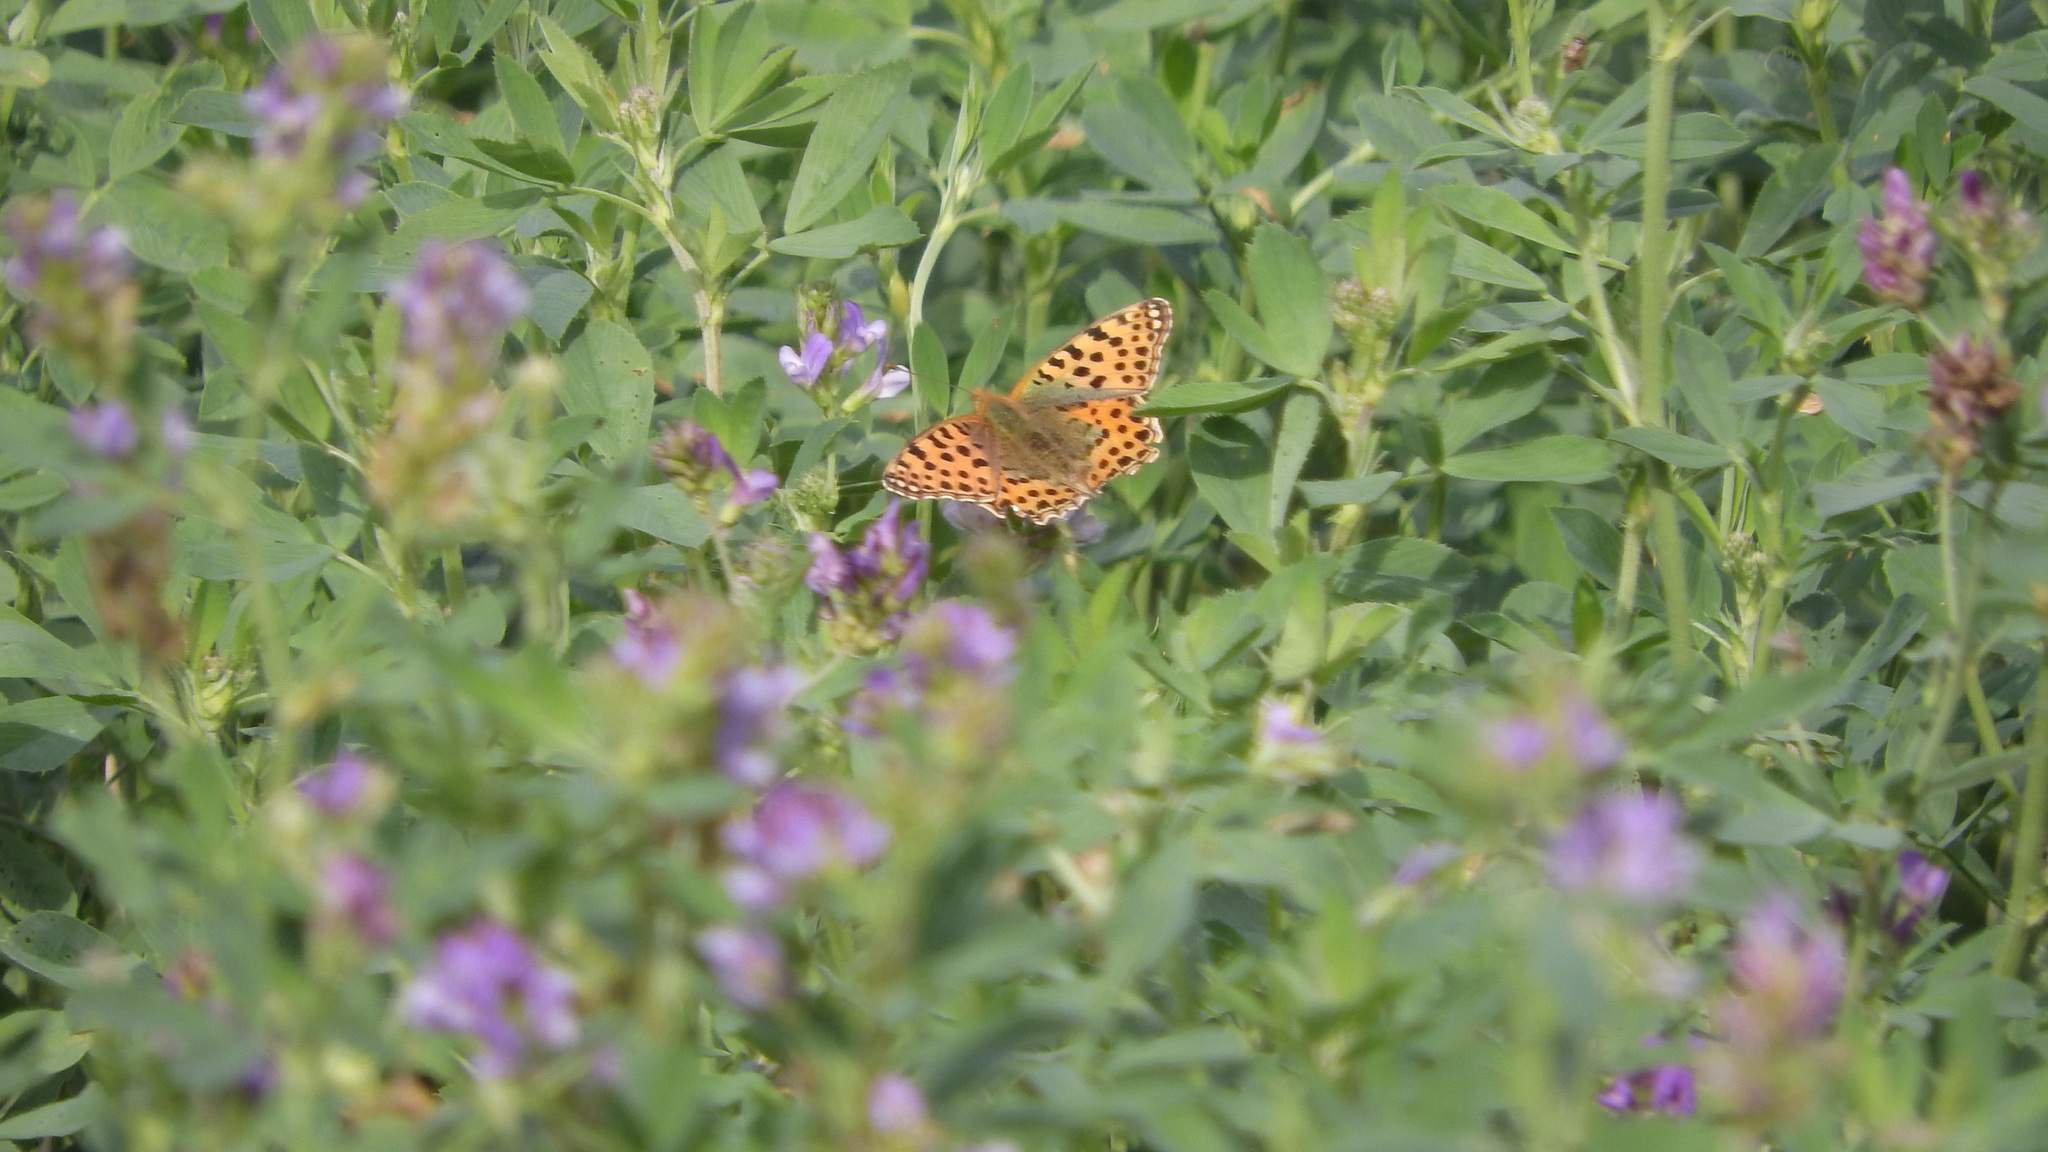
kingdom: Animalia
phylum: Arthropoda
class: Insecta
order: Lepidoptera
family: Nymphalidae
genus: Issoria
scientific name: Issoria lathonia
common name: Queen of spain fritillary
